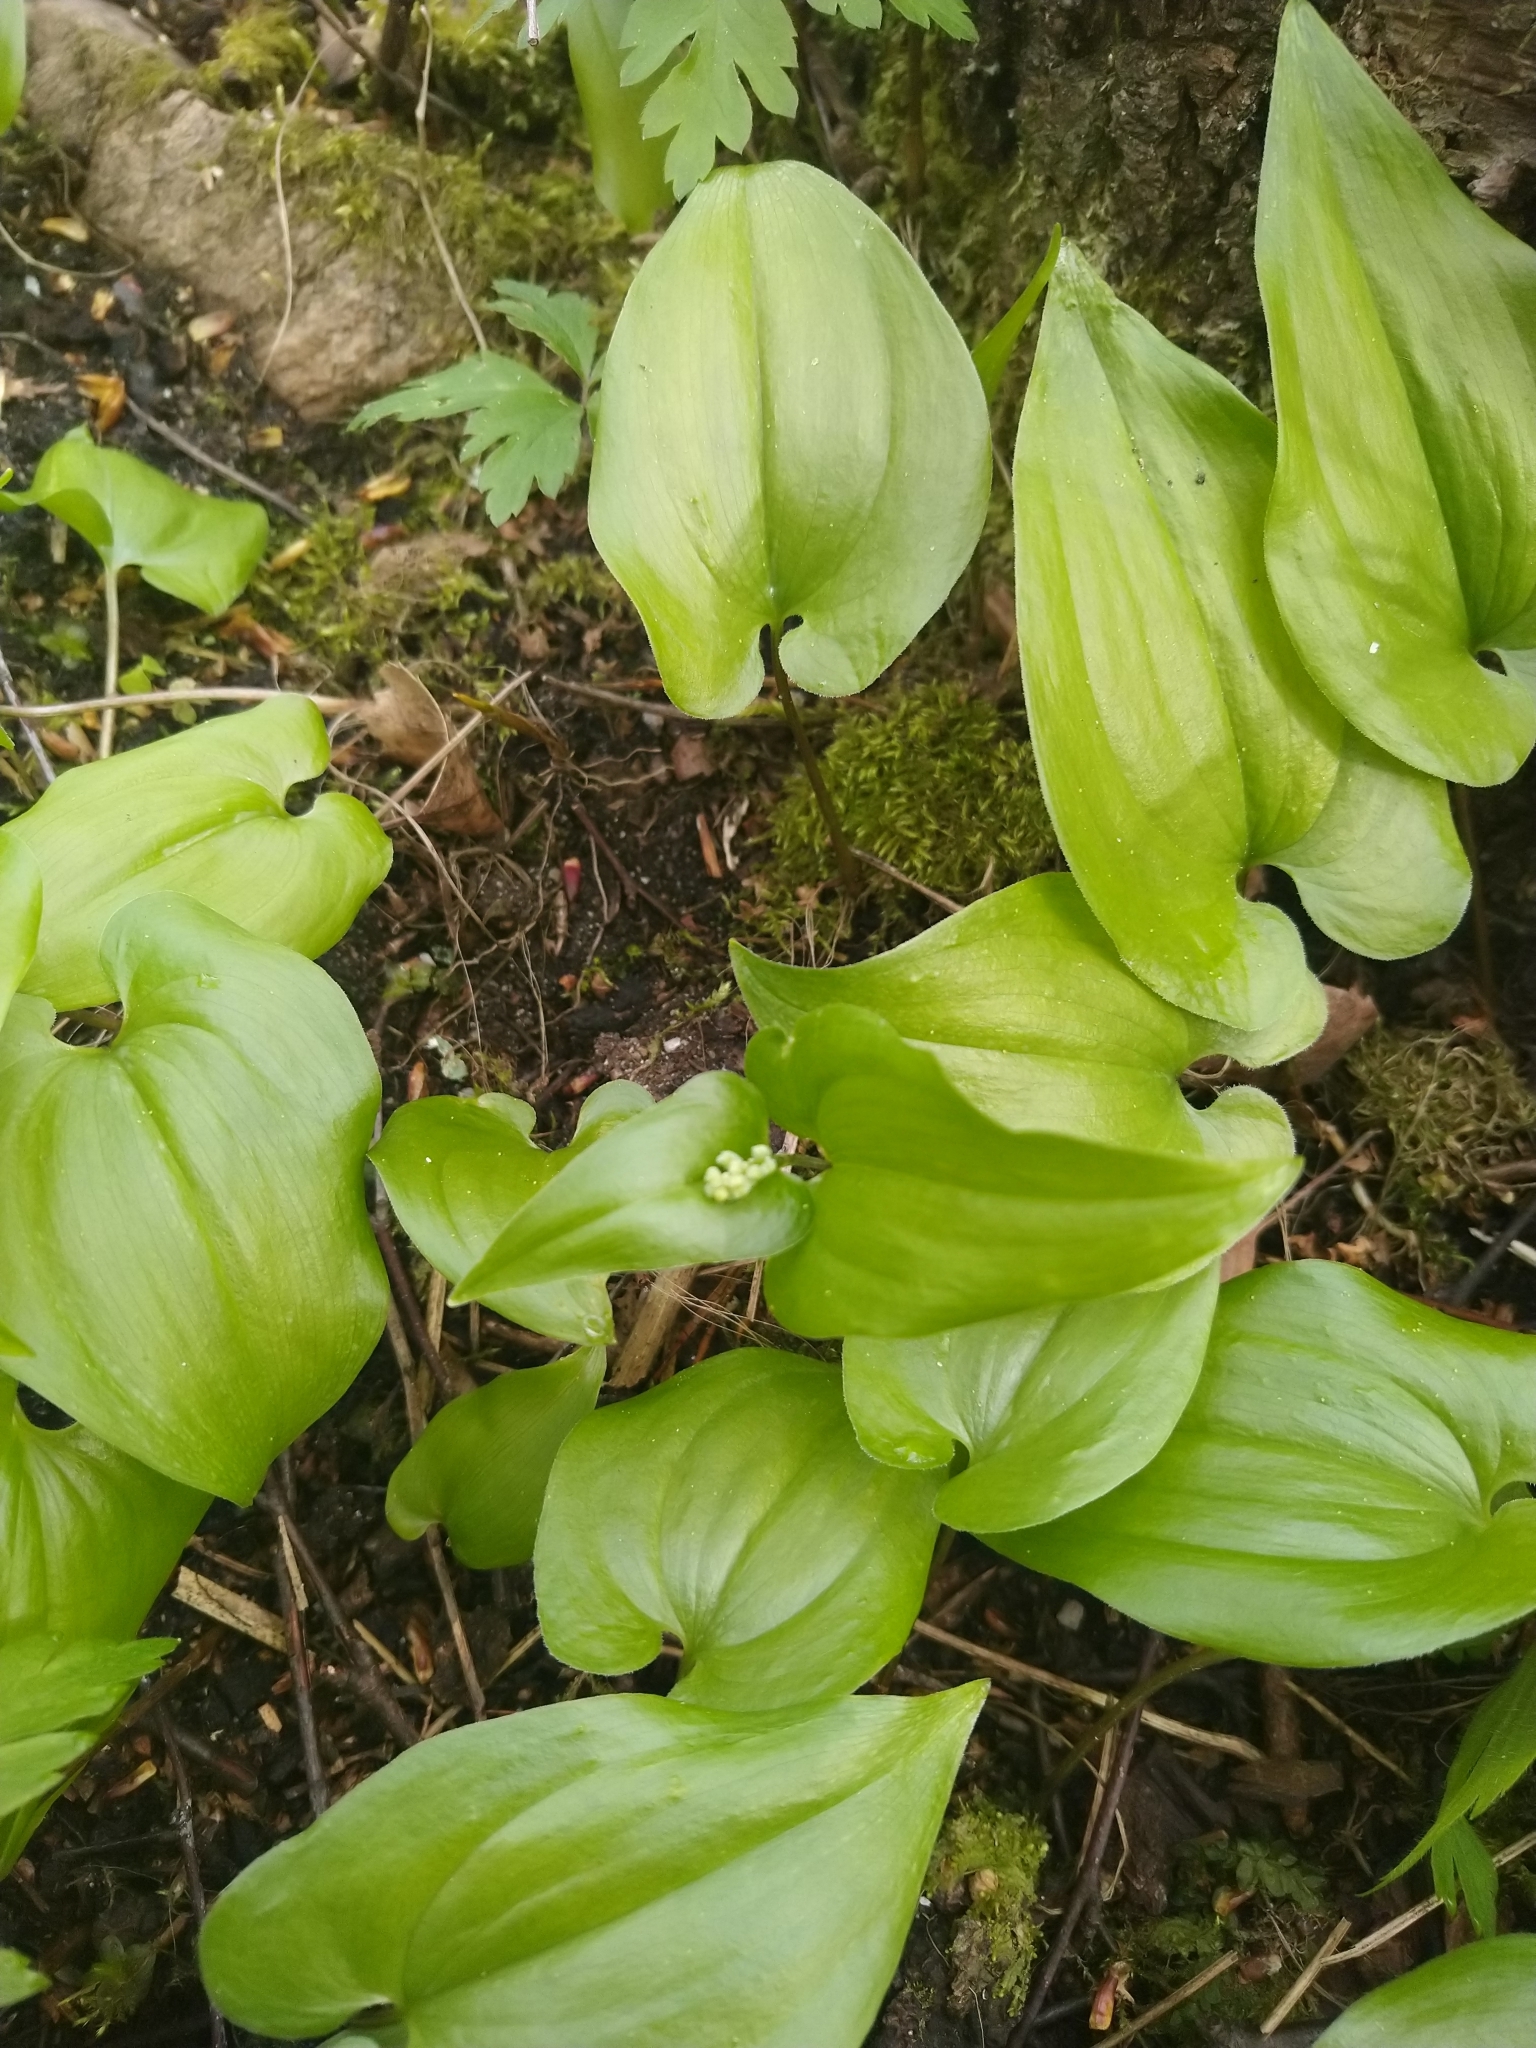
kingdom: Plantae
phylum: Tracheophyta
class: Liliopsida
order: Asparagales
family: Asparagaceae
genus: Maianthemum
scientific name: Maianthemum bifolium
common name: May lily
